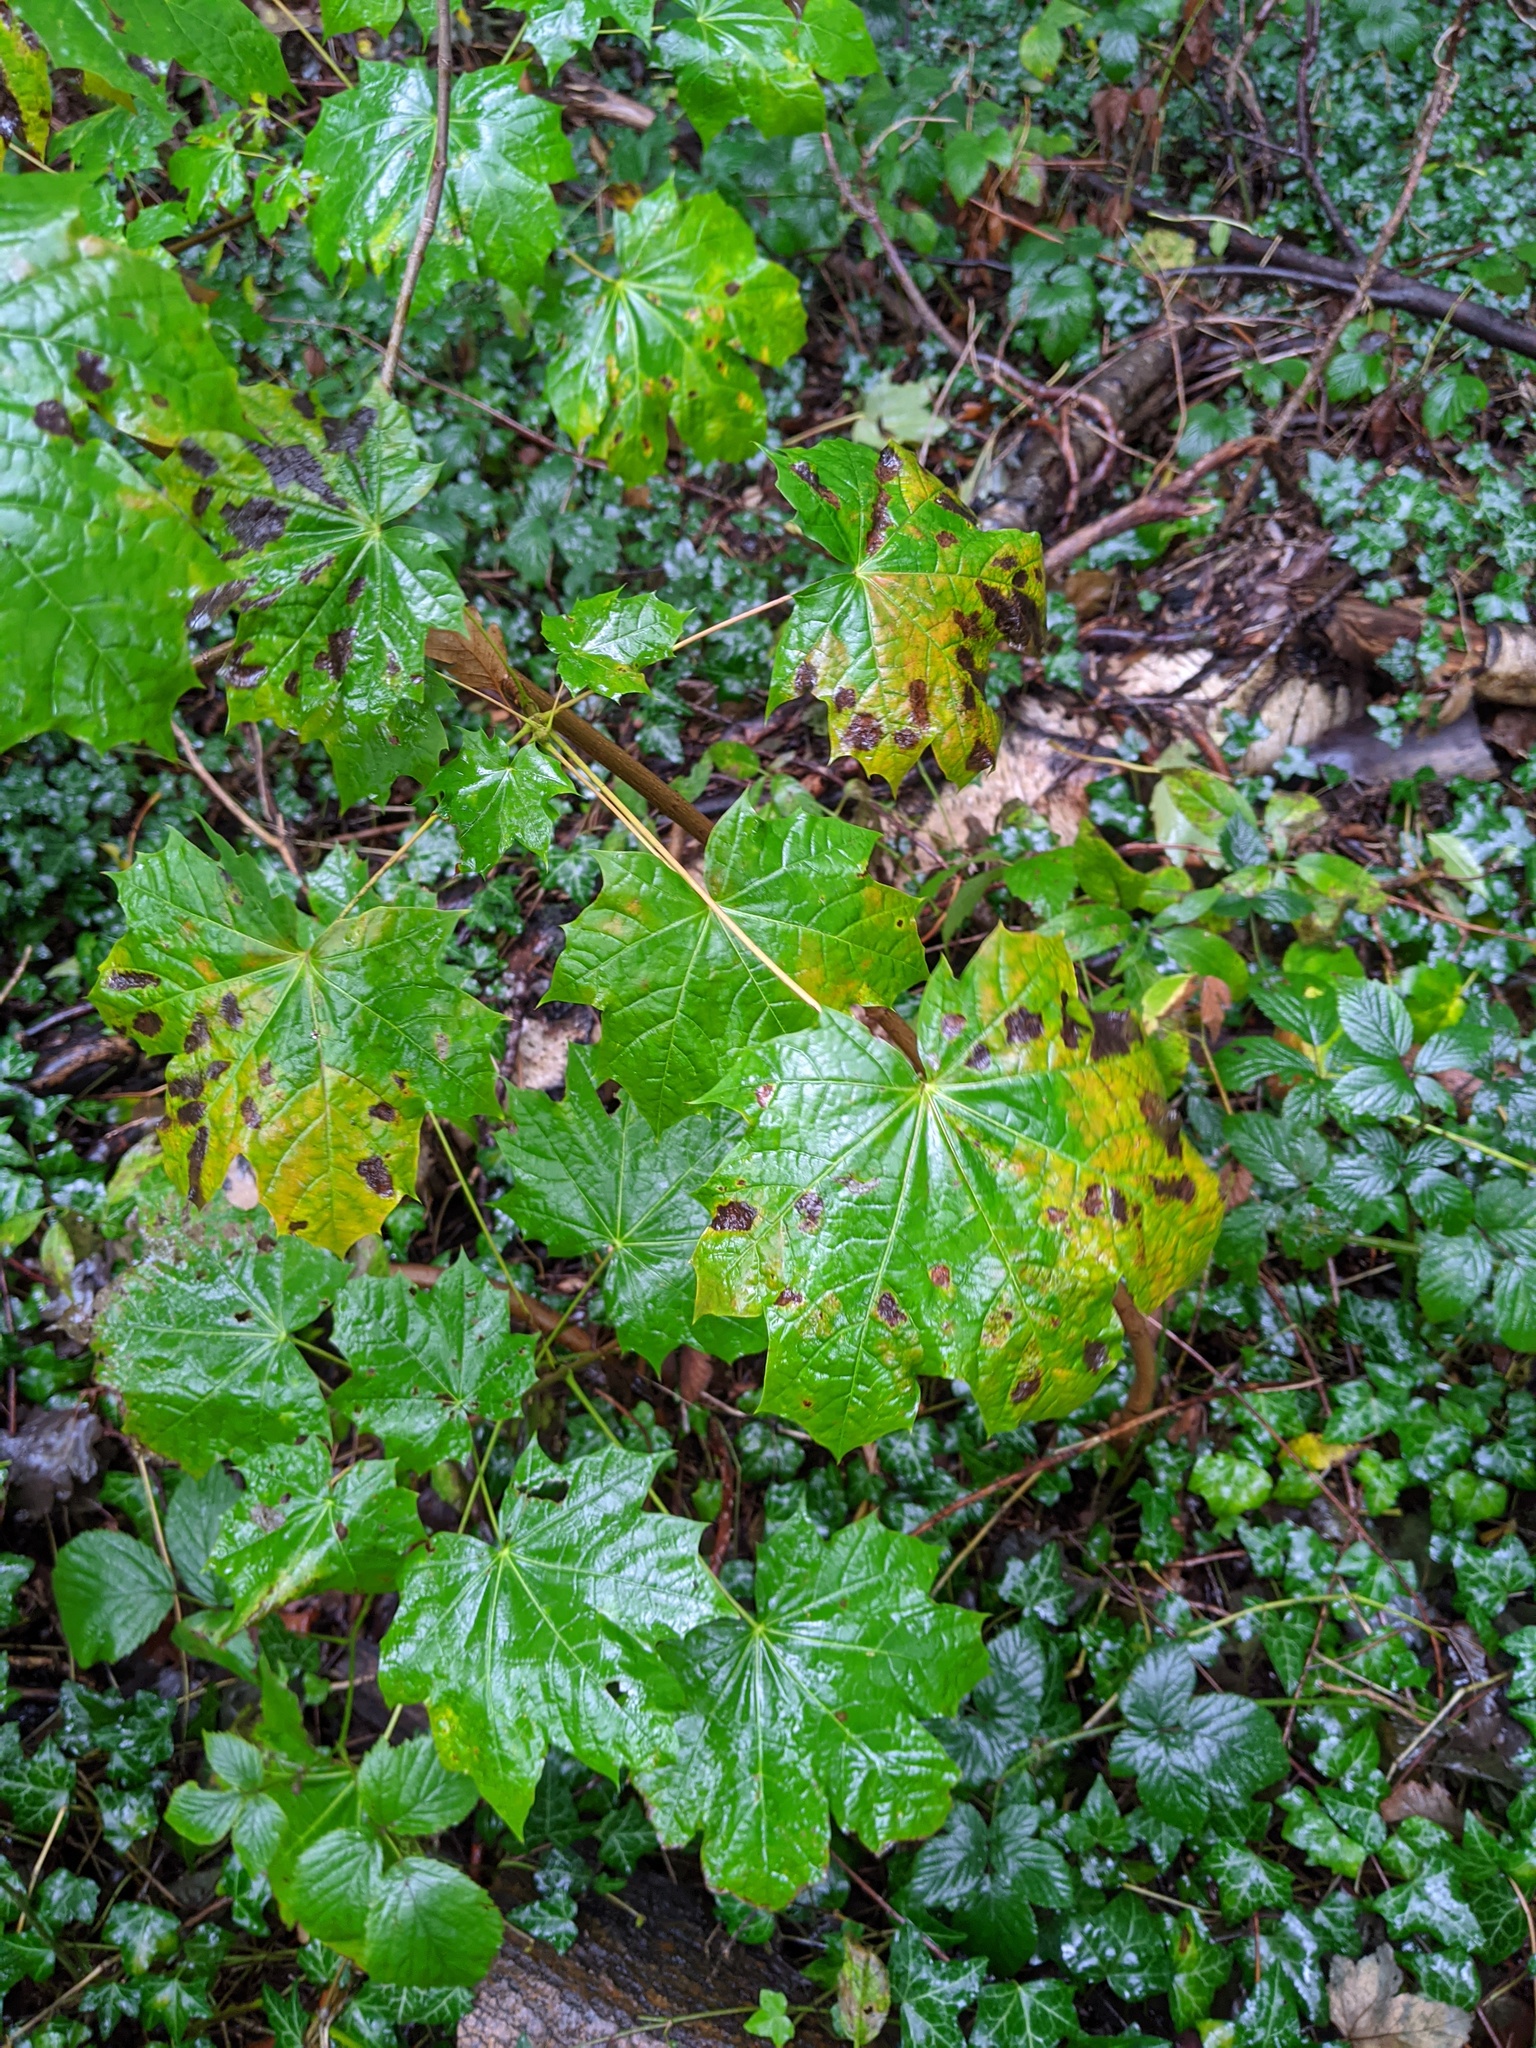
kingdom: Plantae
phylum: Tracheophyta
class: Magnoliopsida
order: Sapindales
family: Sapindaceae
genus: Acer
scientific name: Acer platanoides
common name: Norway maple
